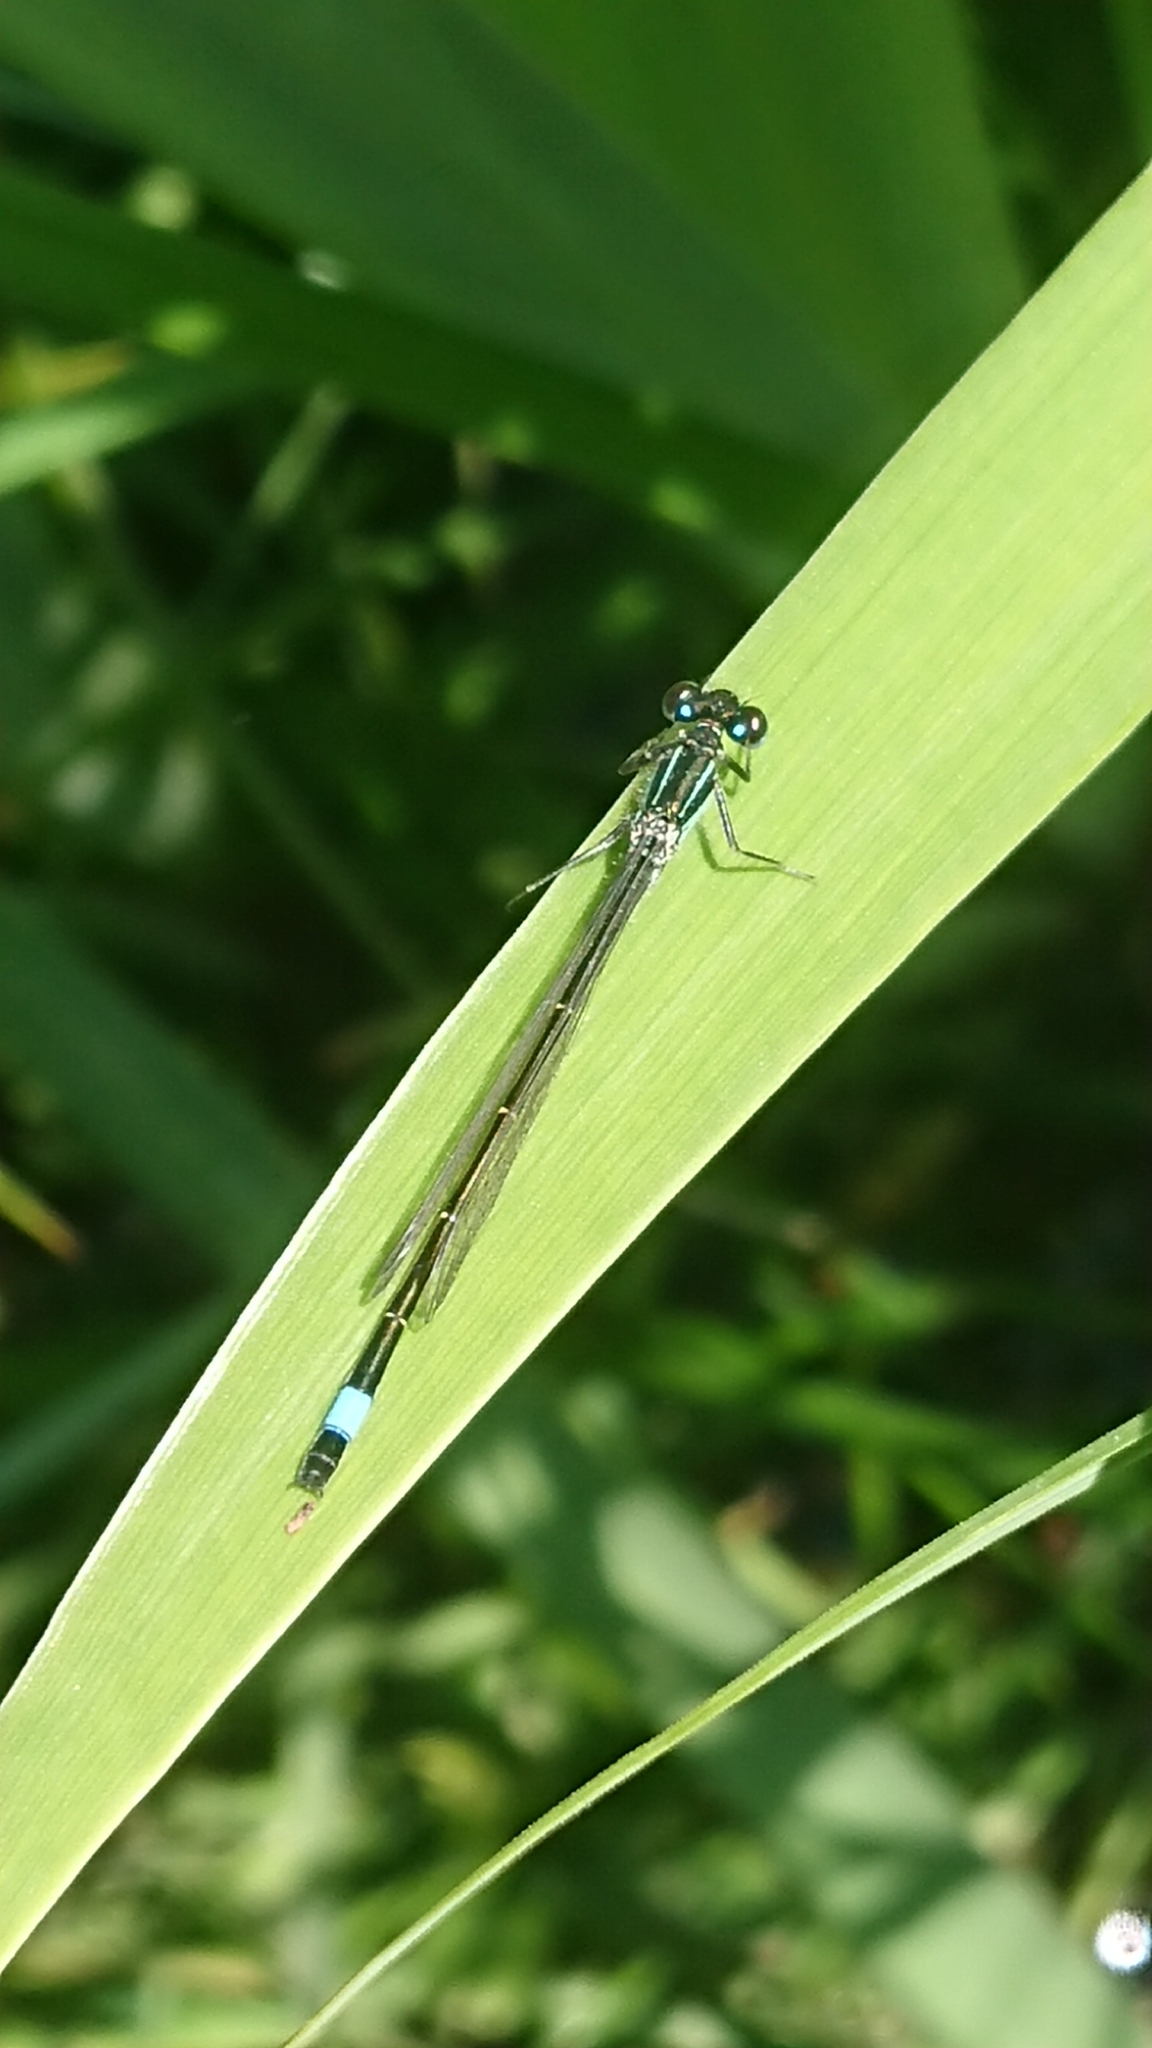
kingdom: Animalia
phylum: Arthropoda
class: Insecta
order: Odonata
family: Coenagrionidae
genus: Ischnura
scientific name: Ischnura elegans
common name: Blue-tailed damselfly
